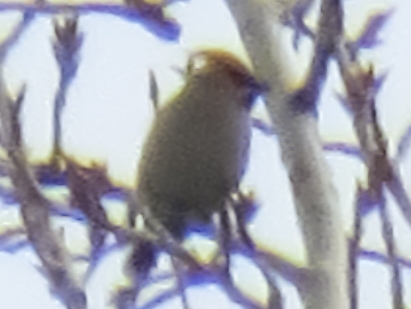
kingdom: Animalia
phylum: Chordata
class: Aves
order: Passeriformes
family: Bombycillidae
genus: Bombycilla
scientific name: Bombycilla garrulus
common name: Bohemian waxwing
